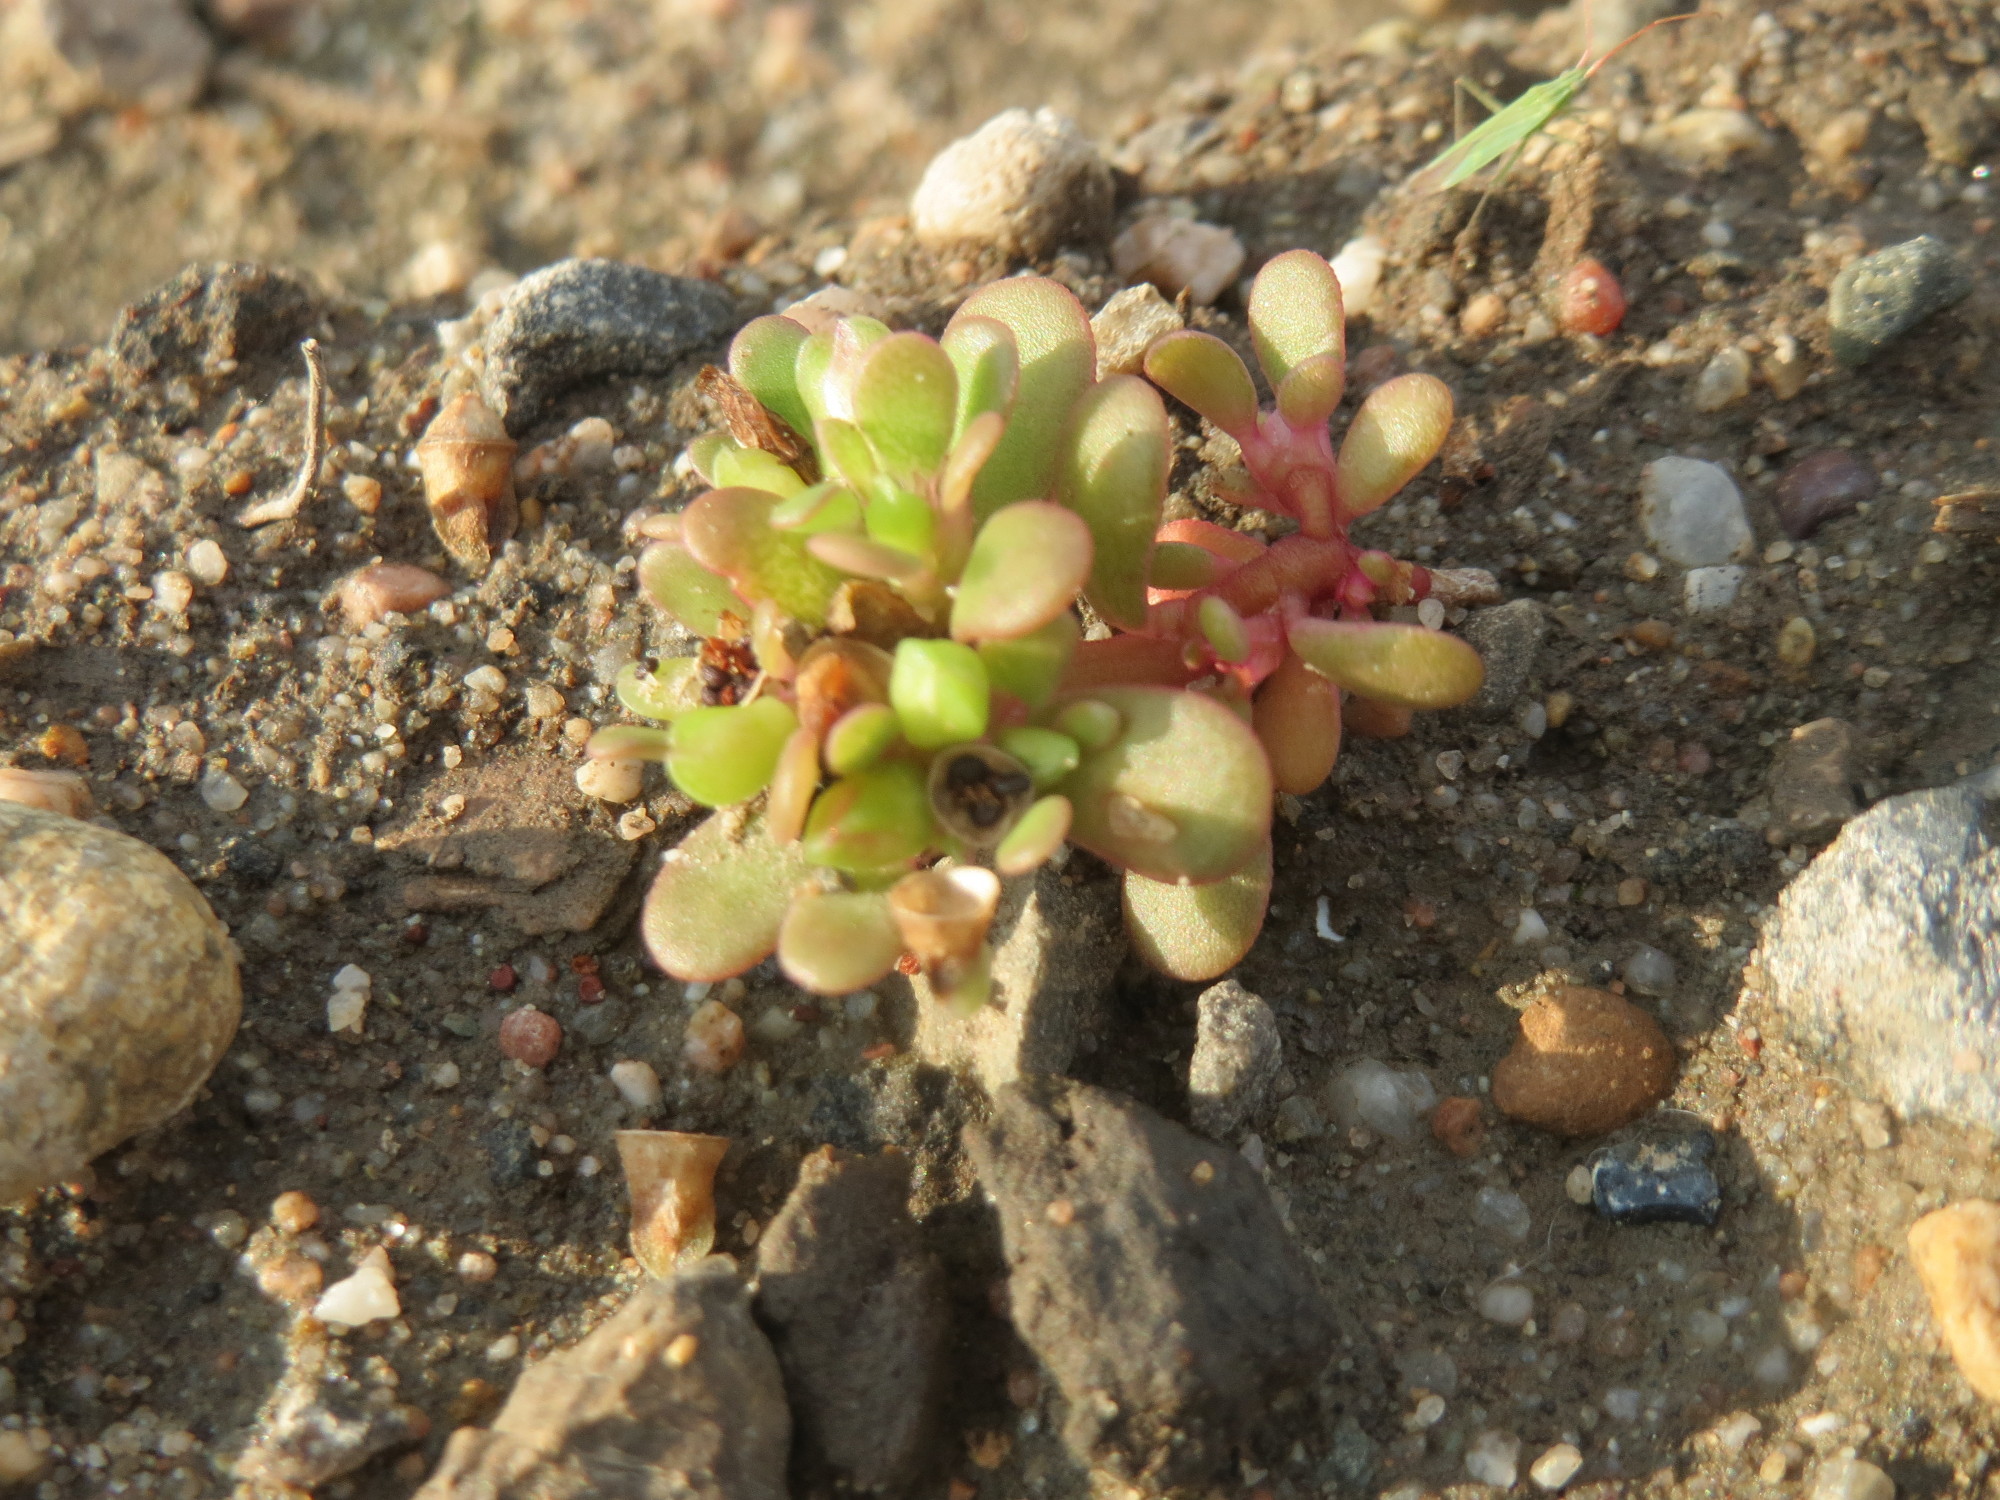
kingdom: Plantae
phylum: Tracheophyta
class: Magnoliopsida
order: Caryophyllales
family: Portulacaceae
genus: Portulaca
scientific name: Portulaca oleracea
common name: Common purslane
